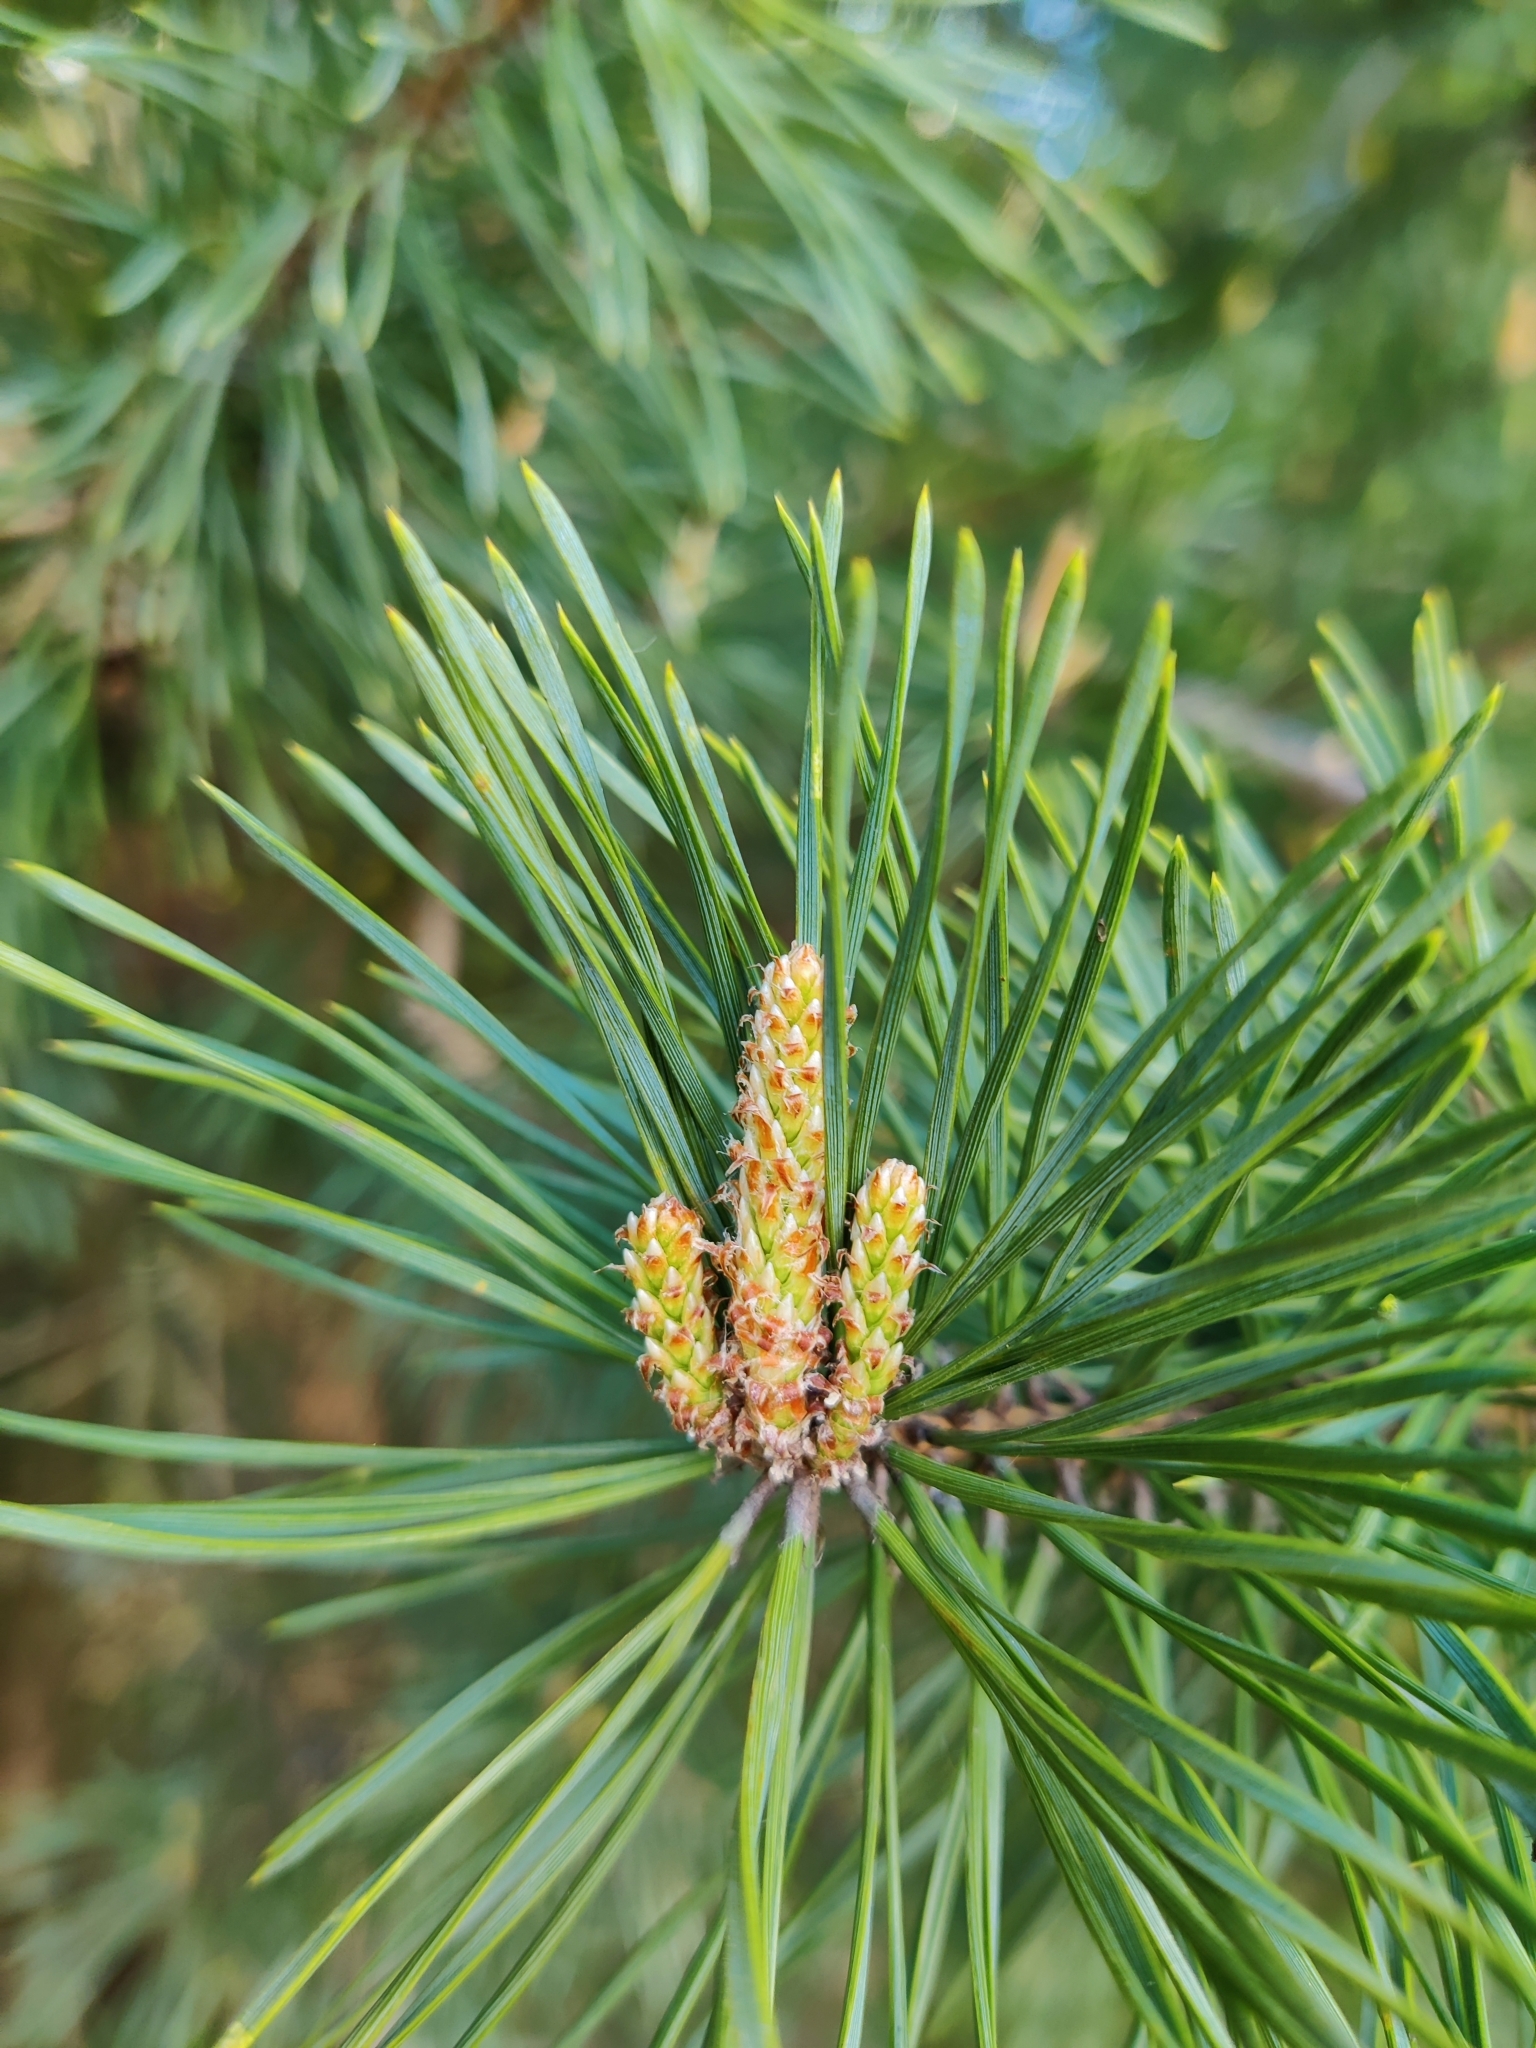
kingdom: Plantae
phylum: Tracheophyta
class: Pinopsida
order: Pinales
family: Pinaceae
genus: Pinus
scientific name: Pinus sylvestris
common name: Scots pine
